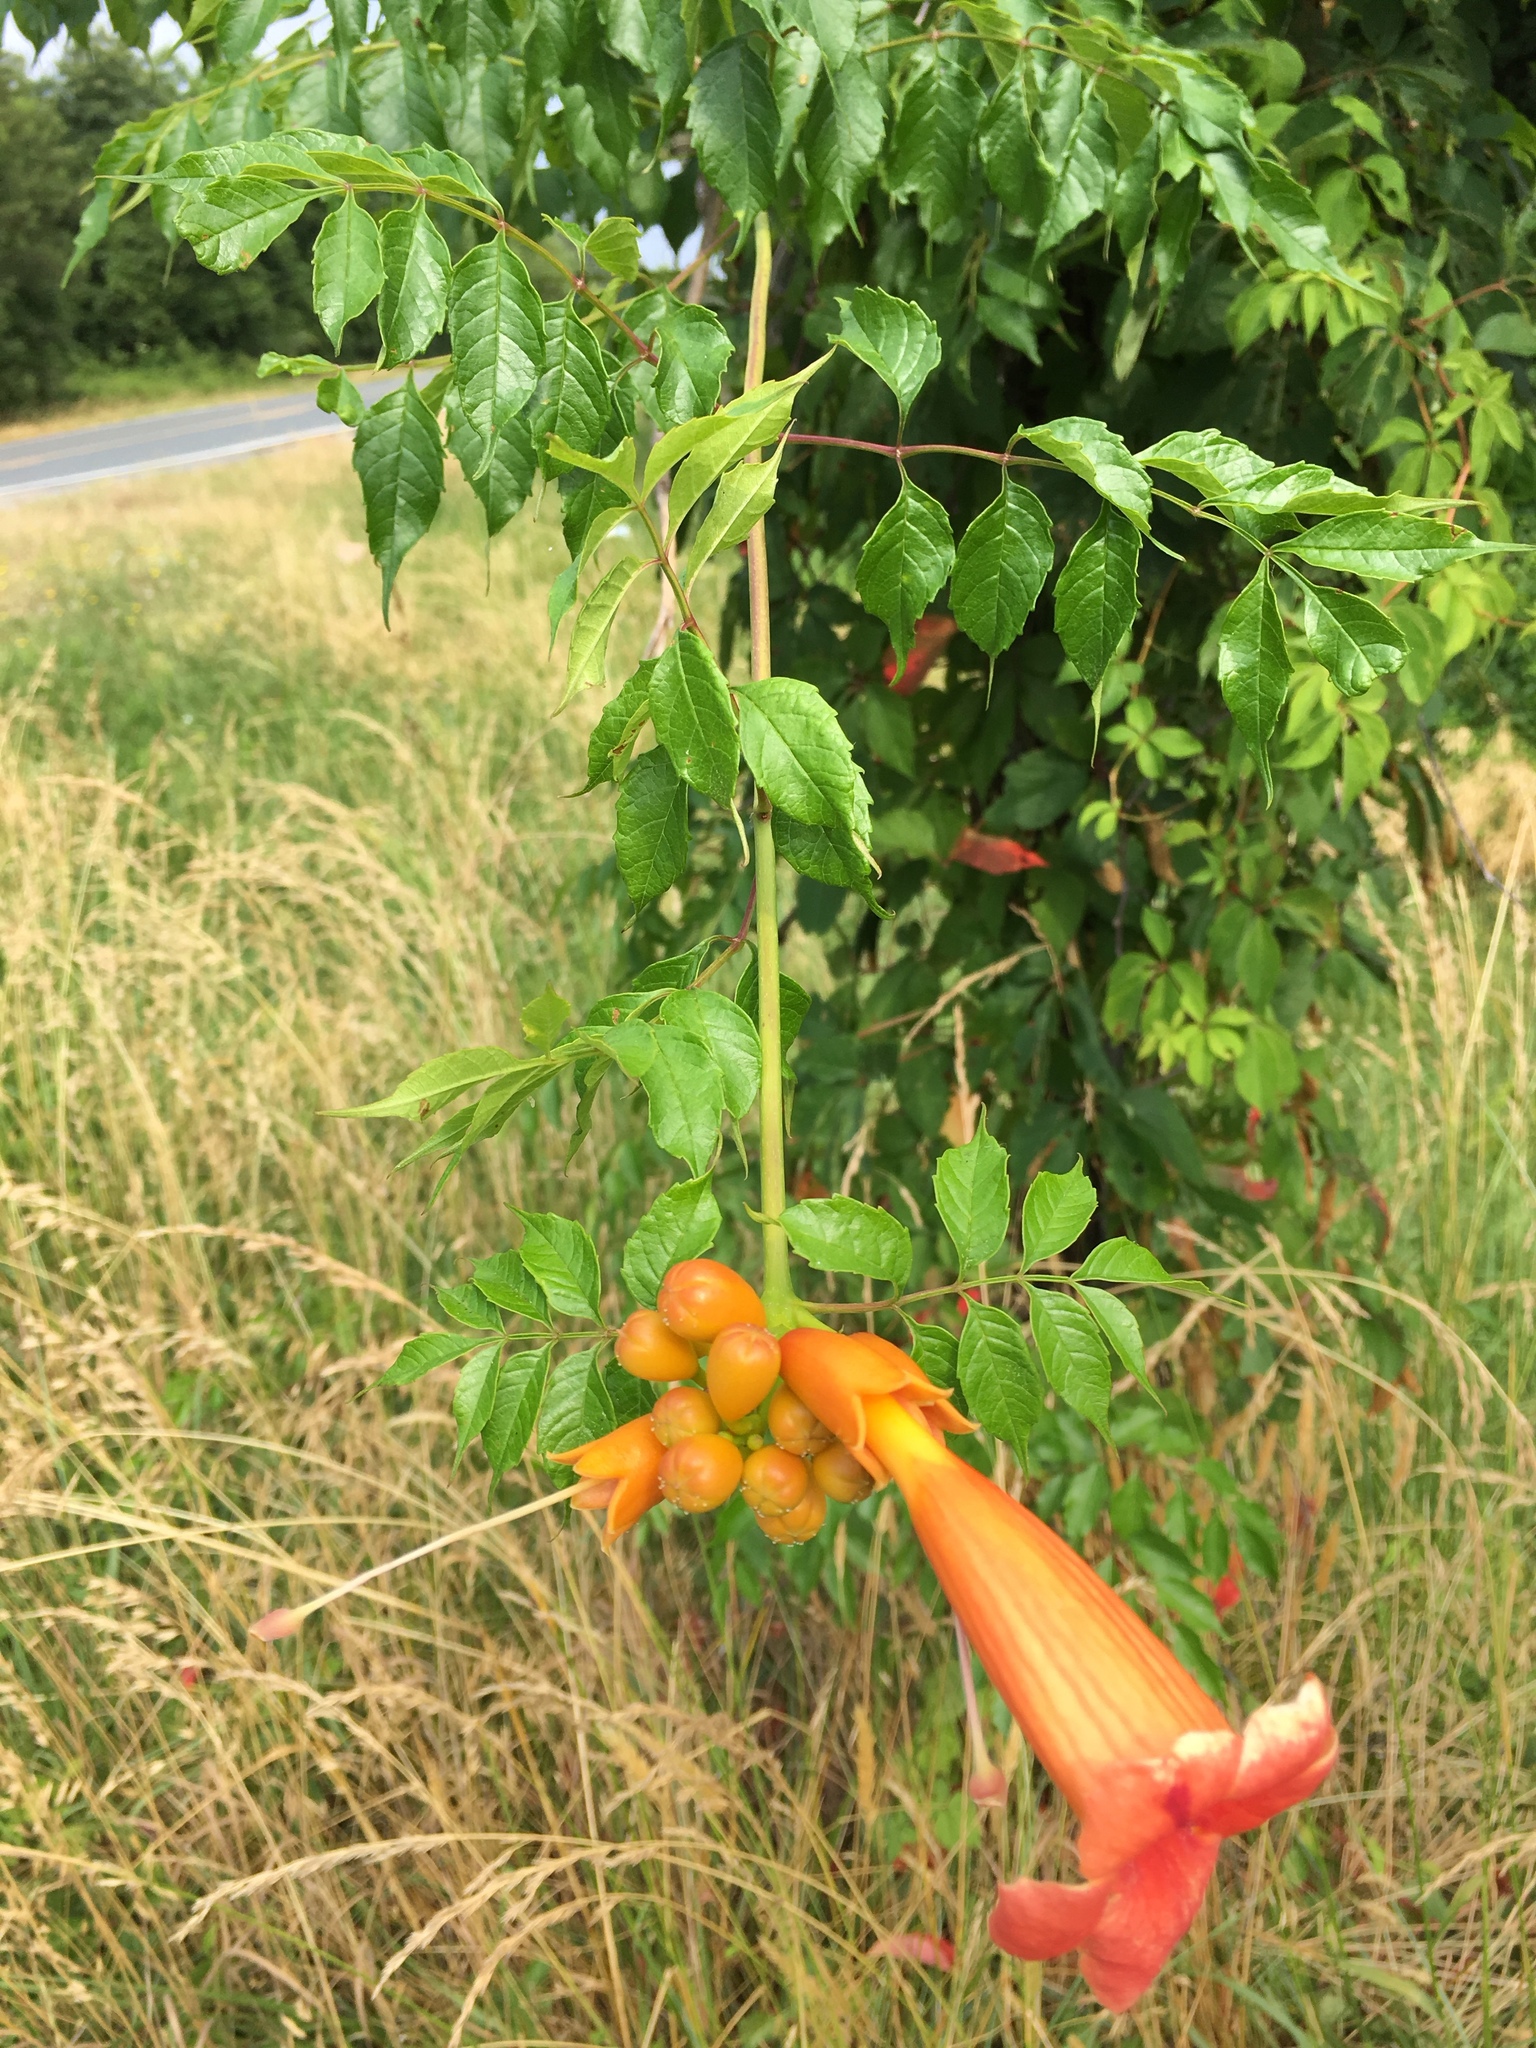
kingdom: Plantae
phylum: Tracheophyta
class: Magnoliopsida
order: Lamiales
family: Bignoniaceae
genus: Campsis
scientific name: Campsis radicans
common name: Trumpet-creeper
